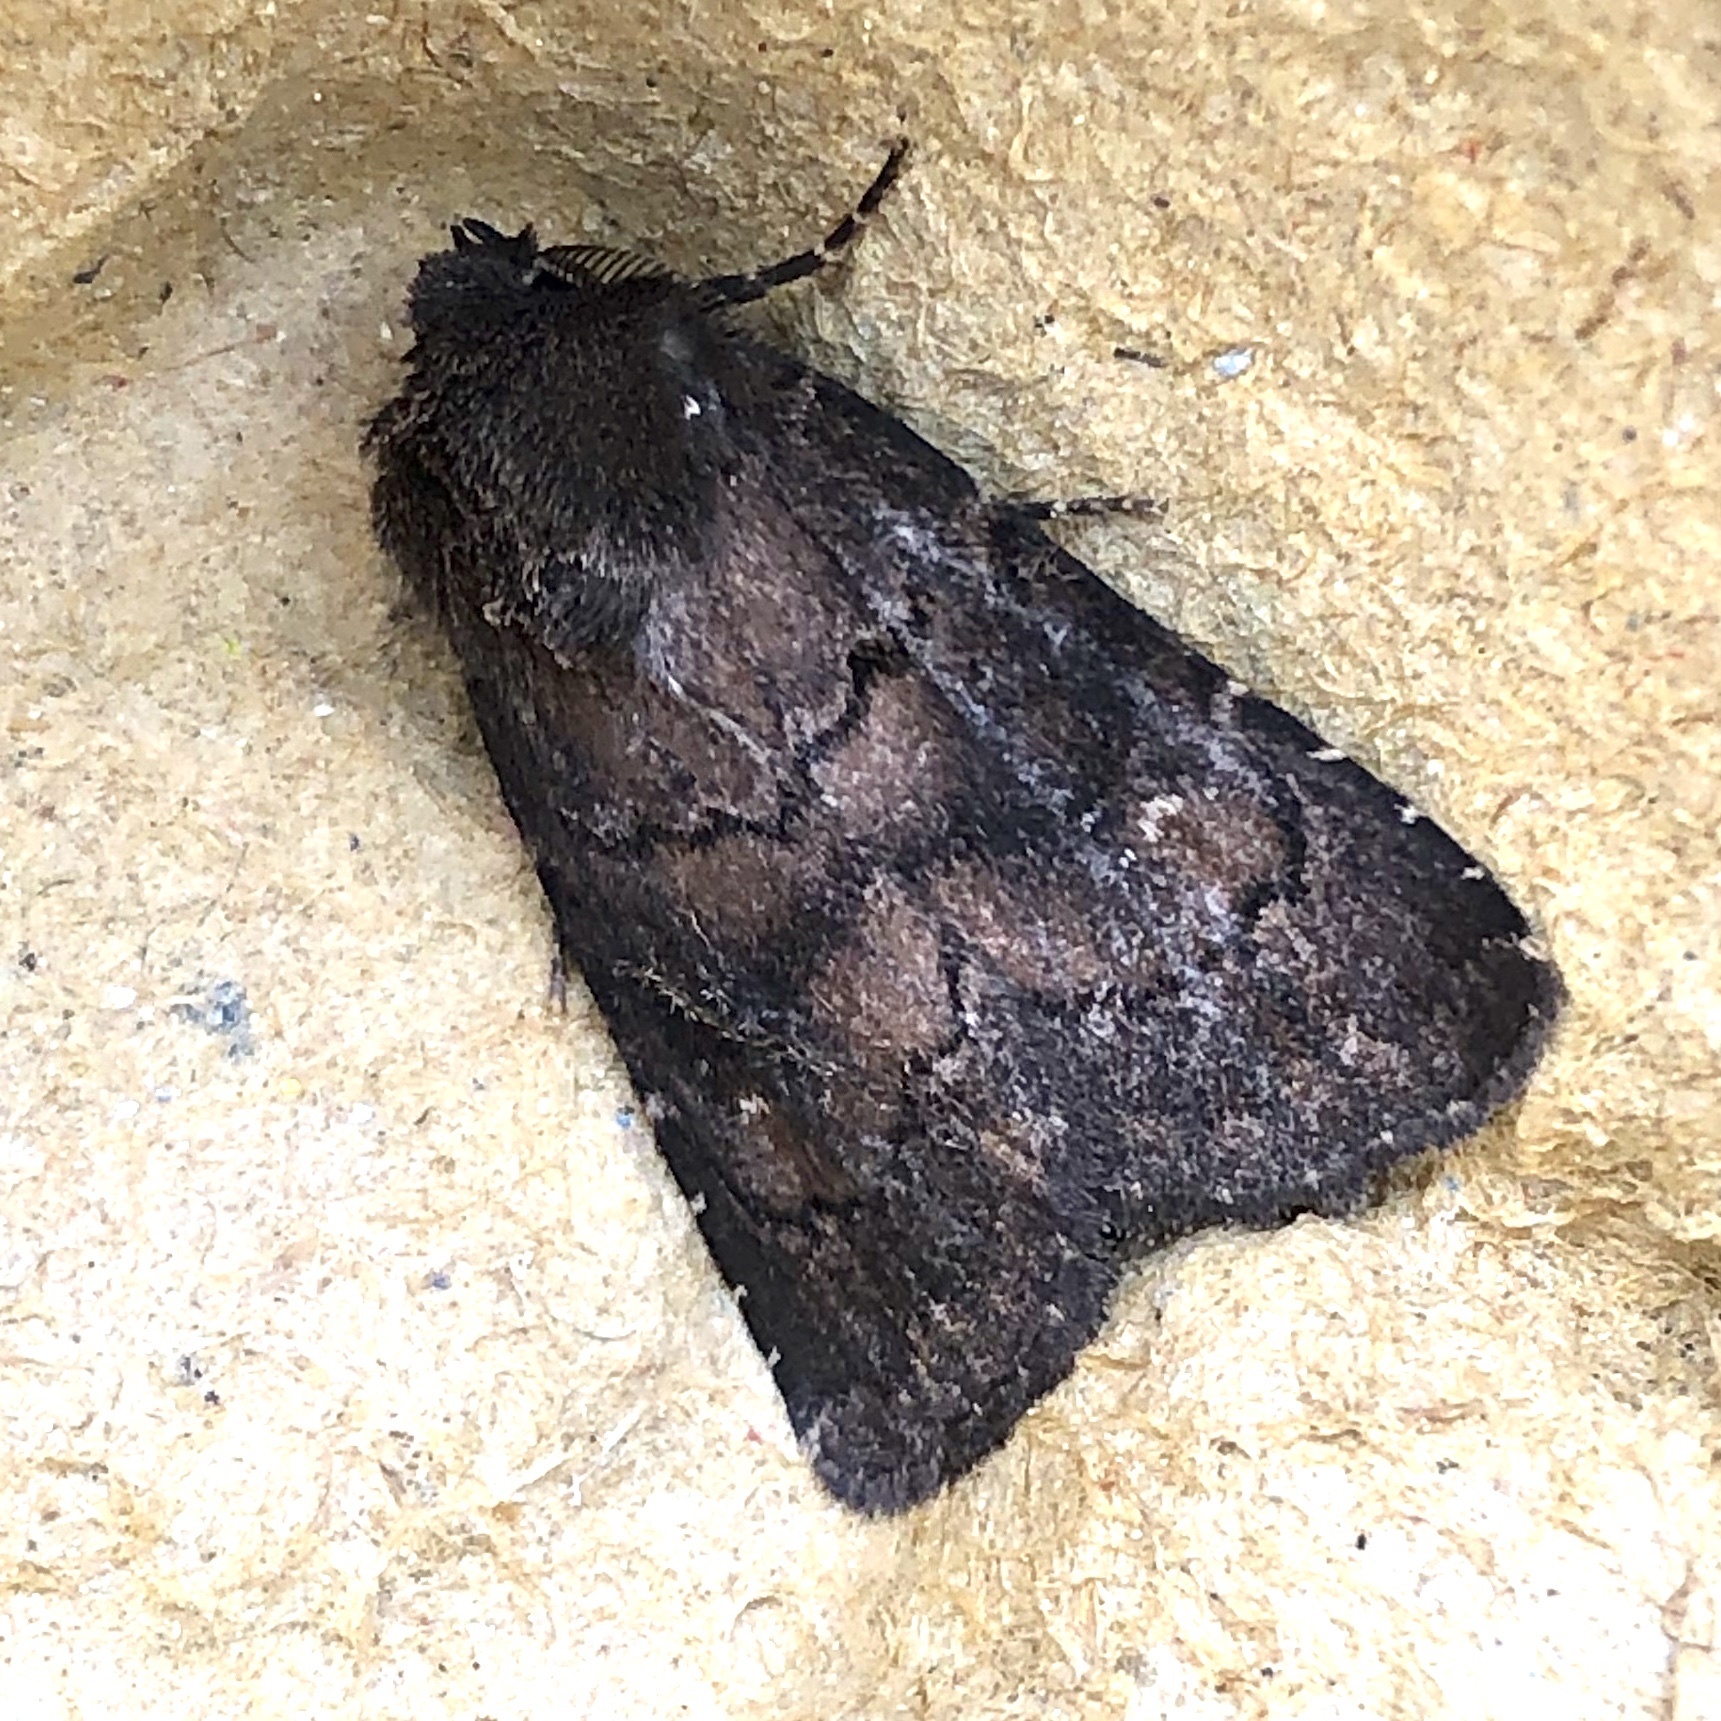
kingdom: Animalia
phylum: Arthropoda
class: Insecta
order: Lepidoptera
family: Noctuidae
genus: Charanyca
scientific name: Charanyca ferruginea
